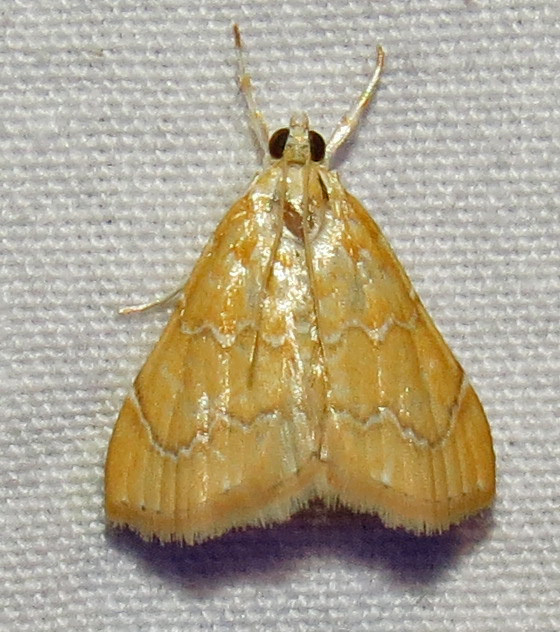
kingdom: Animalia
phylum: Arthropoda
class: Insecta
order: Lepidoptera
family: Crambidae
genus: Glaphyria
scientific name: Glaphyria sesquistrialis
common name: White-roped glaphyria
